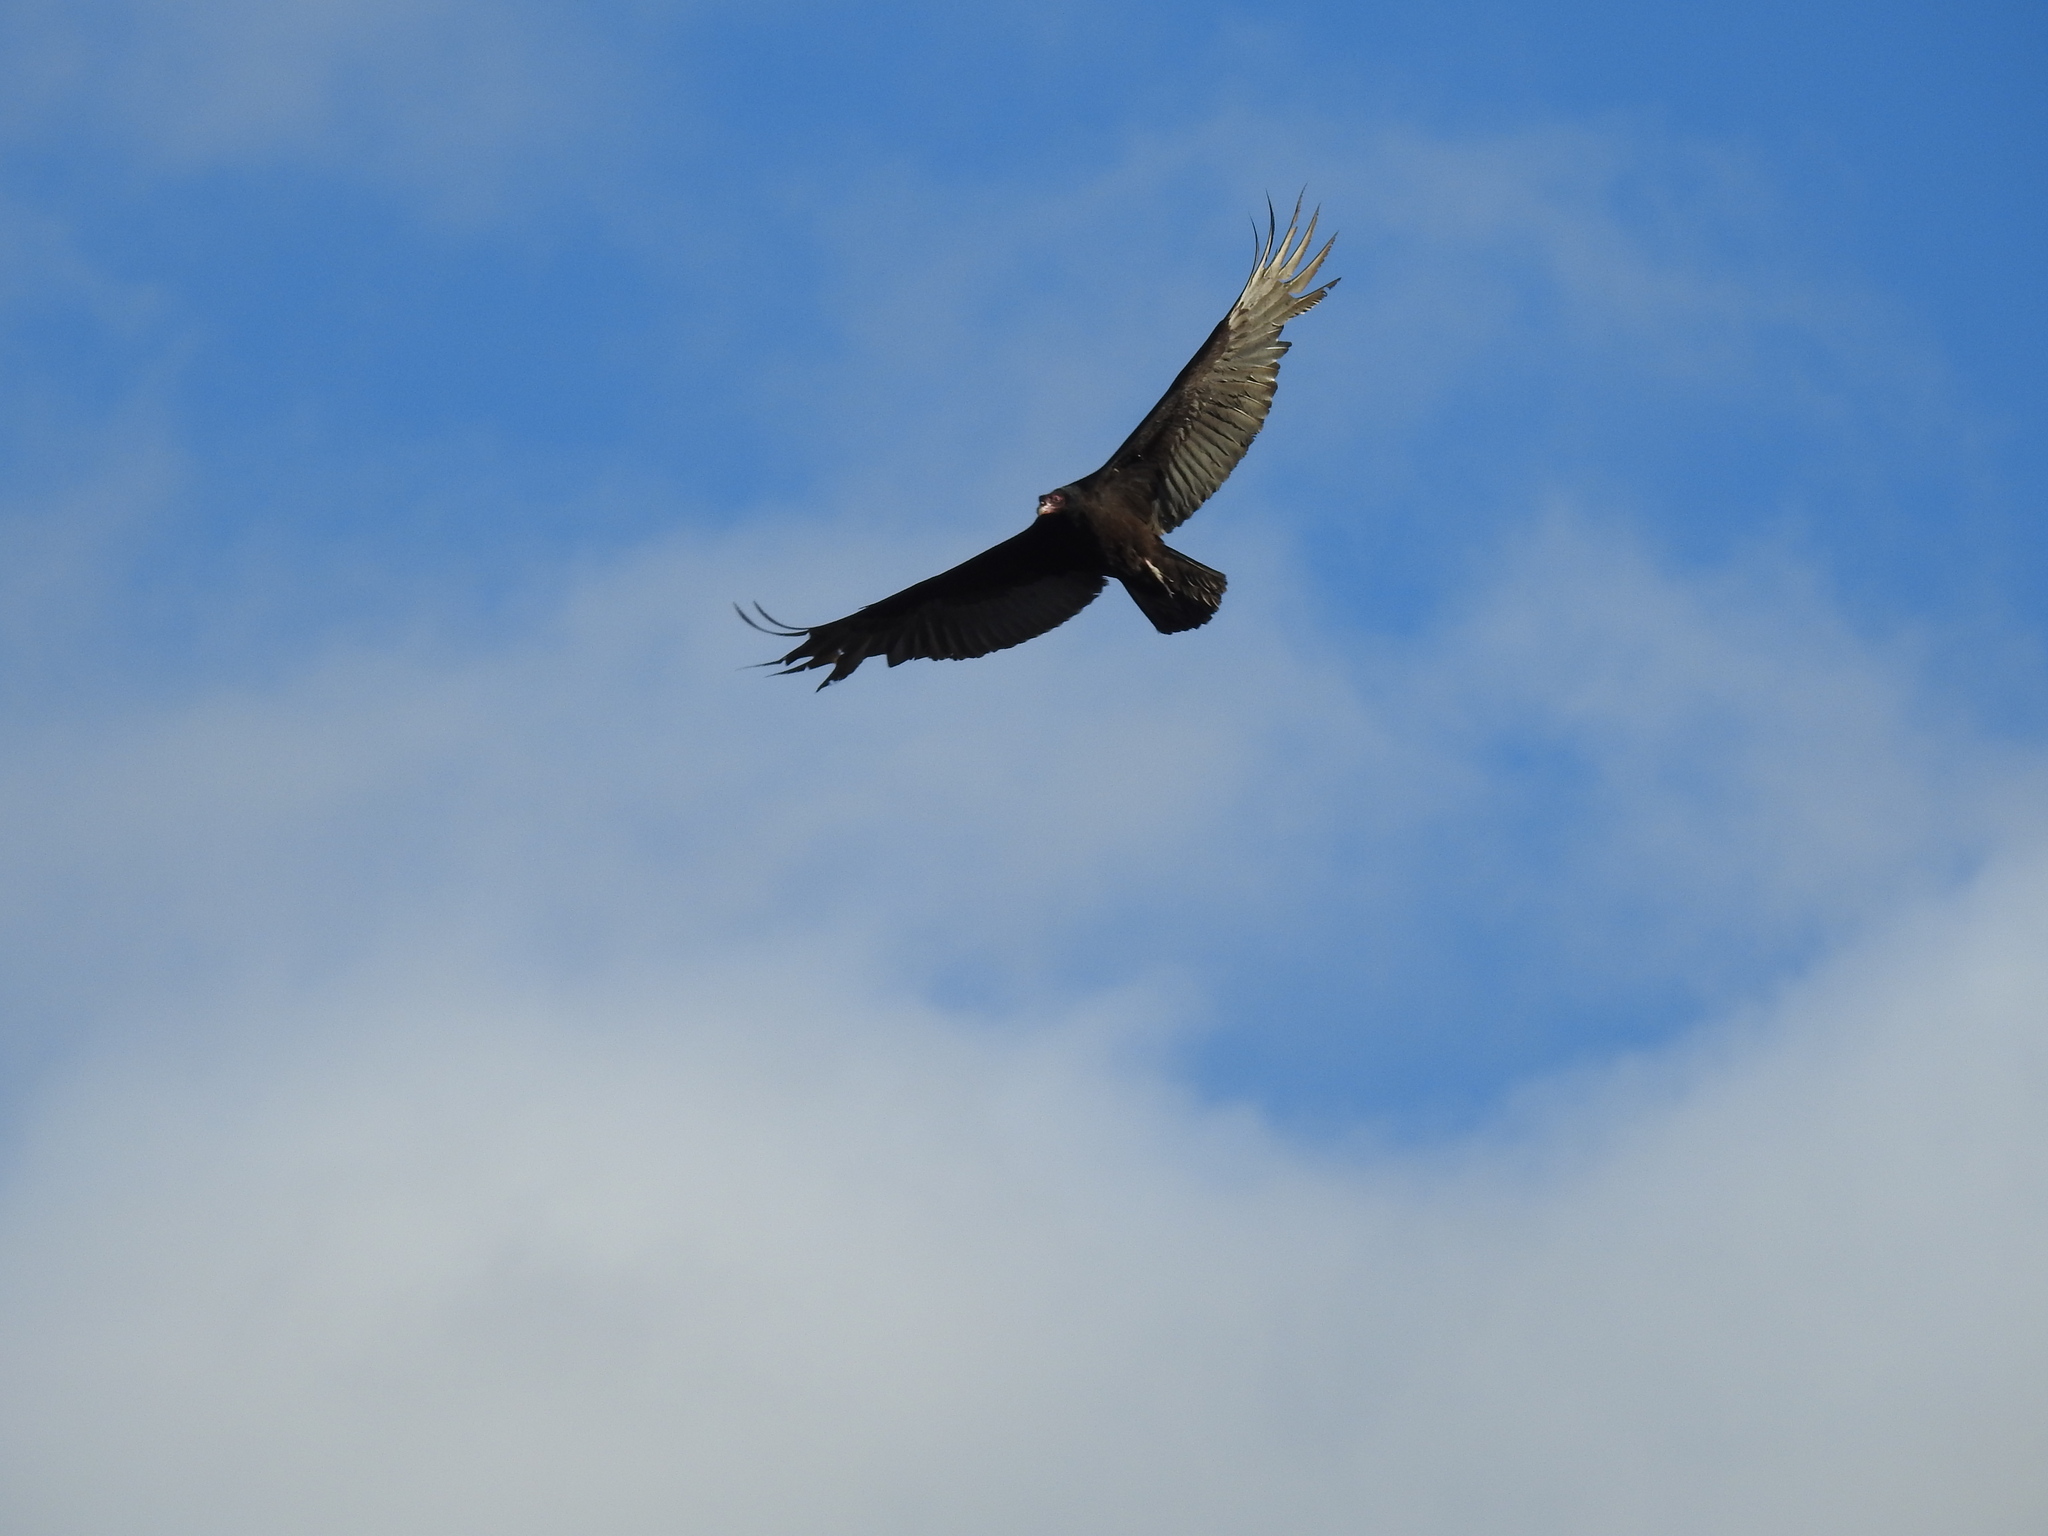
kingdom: Animalia
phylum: Chordata
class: Aves
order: Accipitriformes
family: Cathartidae
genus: Cathartes
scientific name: Cathartes aura
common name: Turkey vulture
